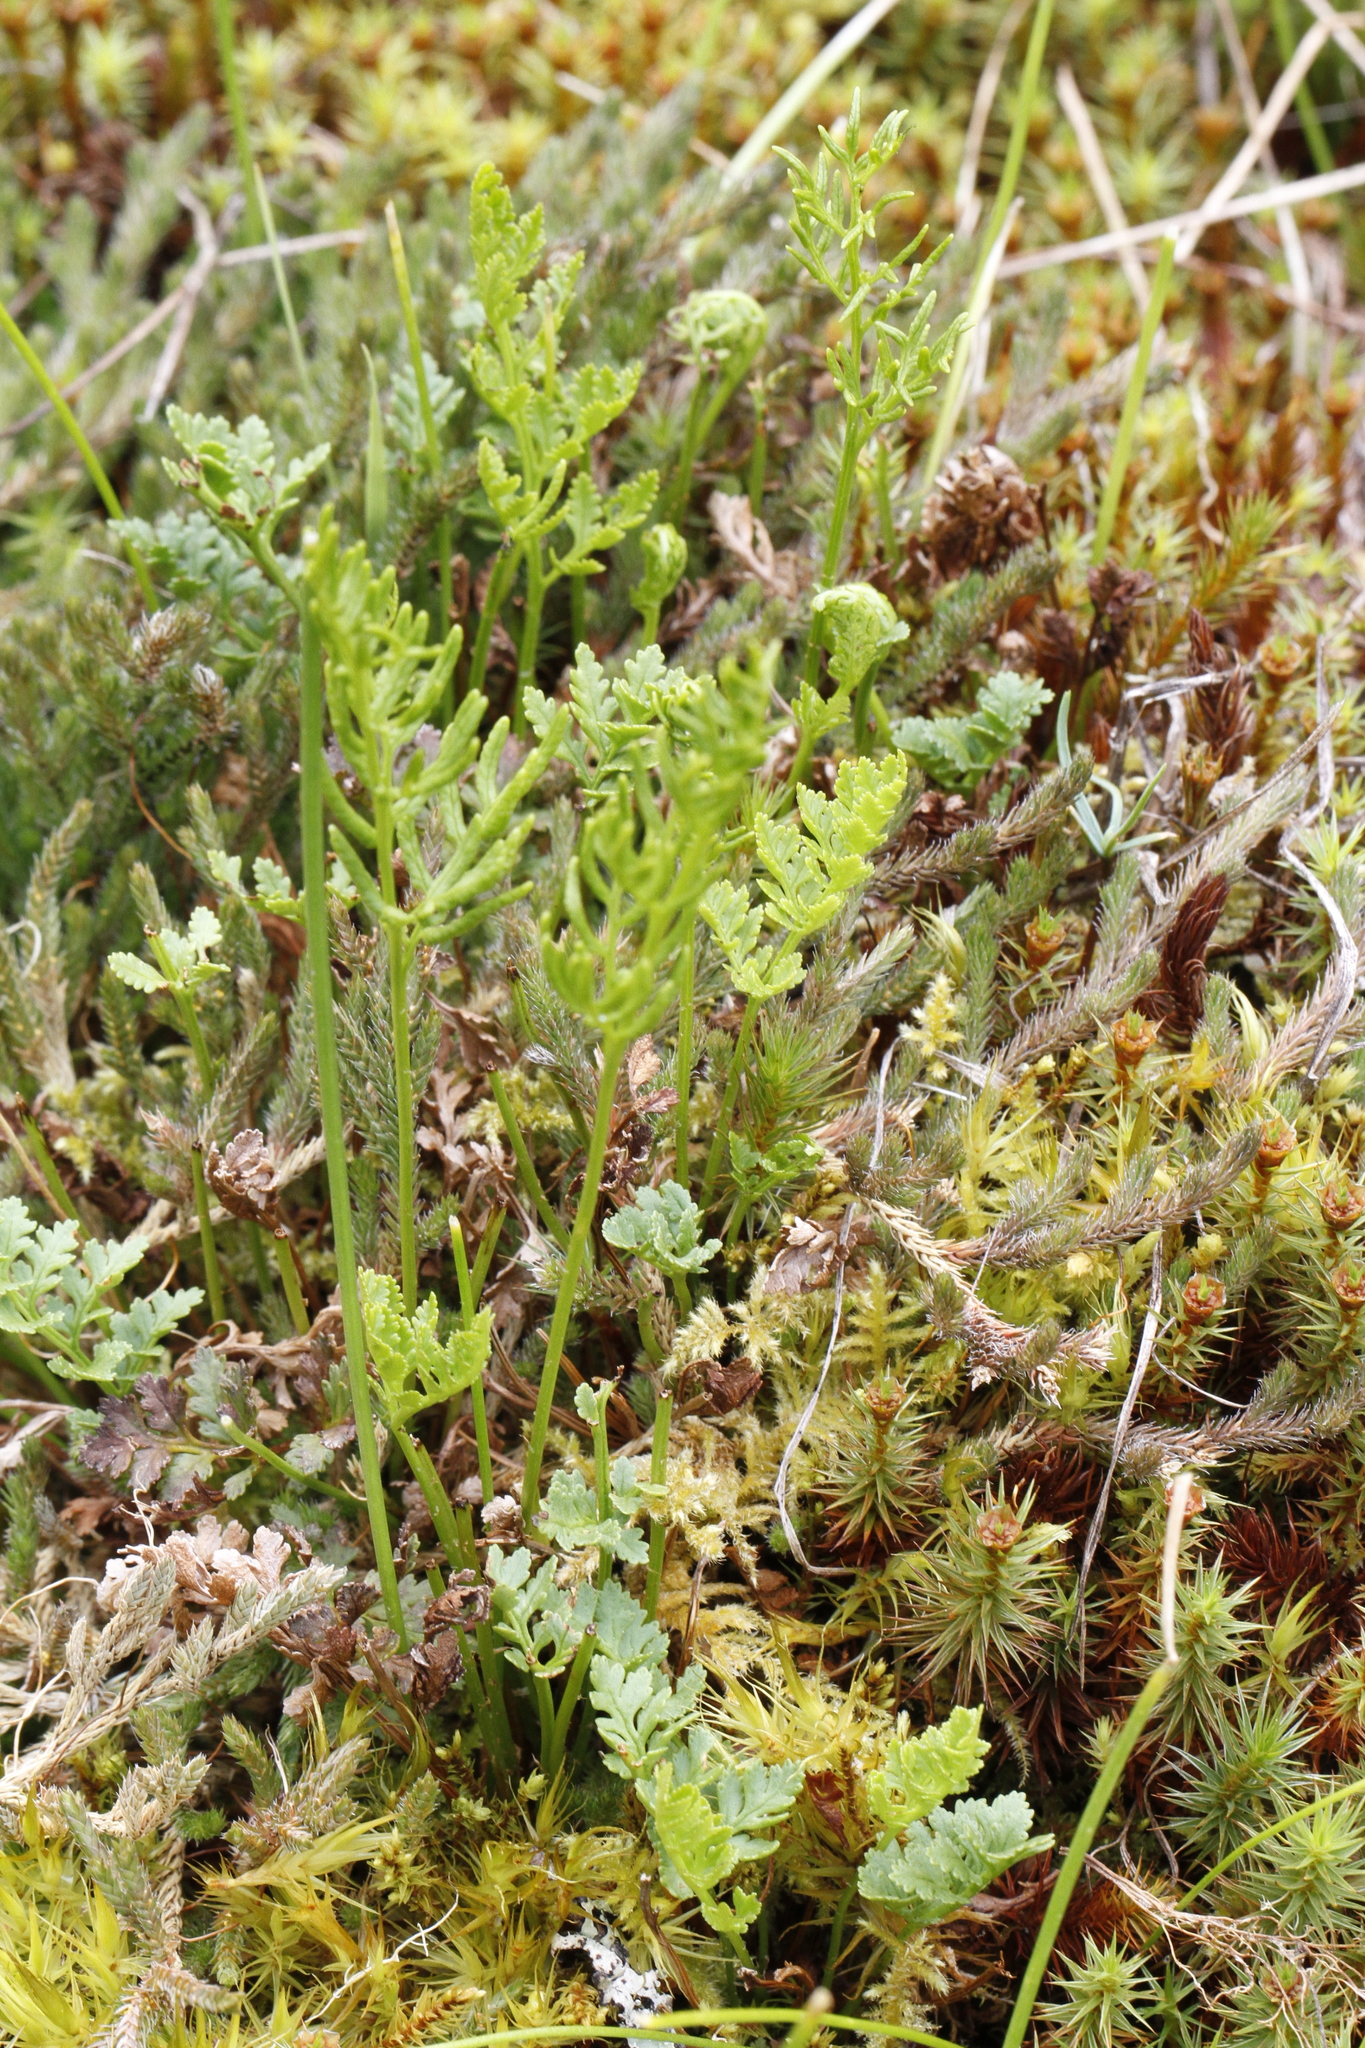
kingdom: Plantae
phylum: Tracheophyta
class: Polypodiopsida
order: Polypodiales
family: Pteridaceae
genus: Cryptogramma
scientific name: Cryptogramma acrostichoides
